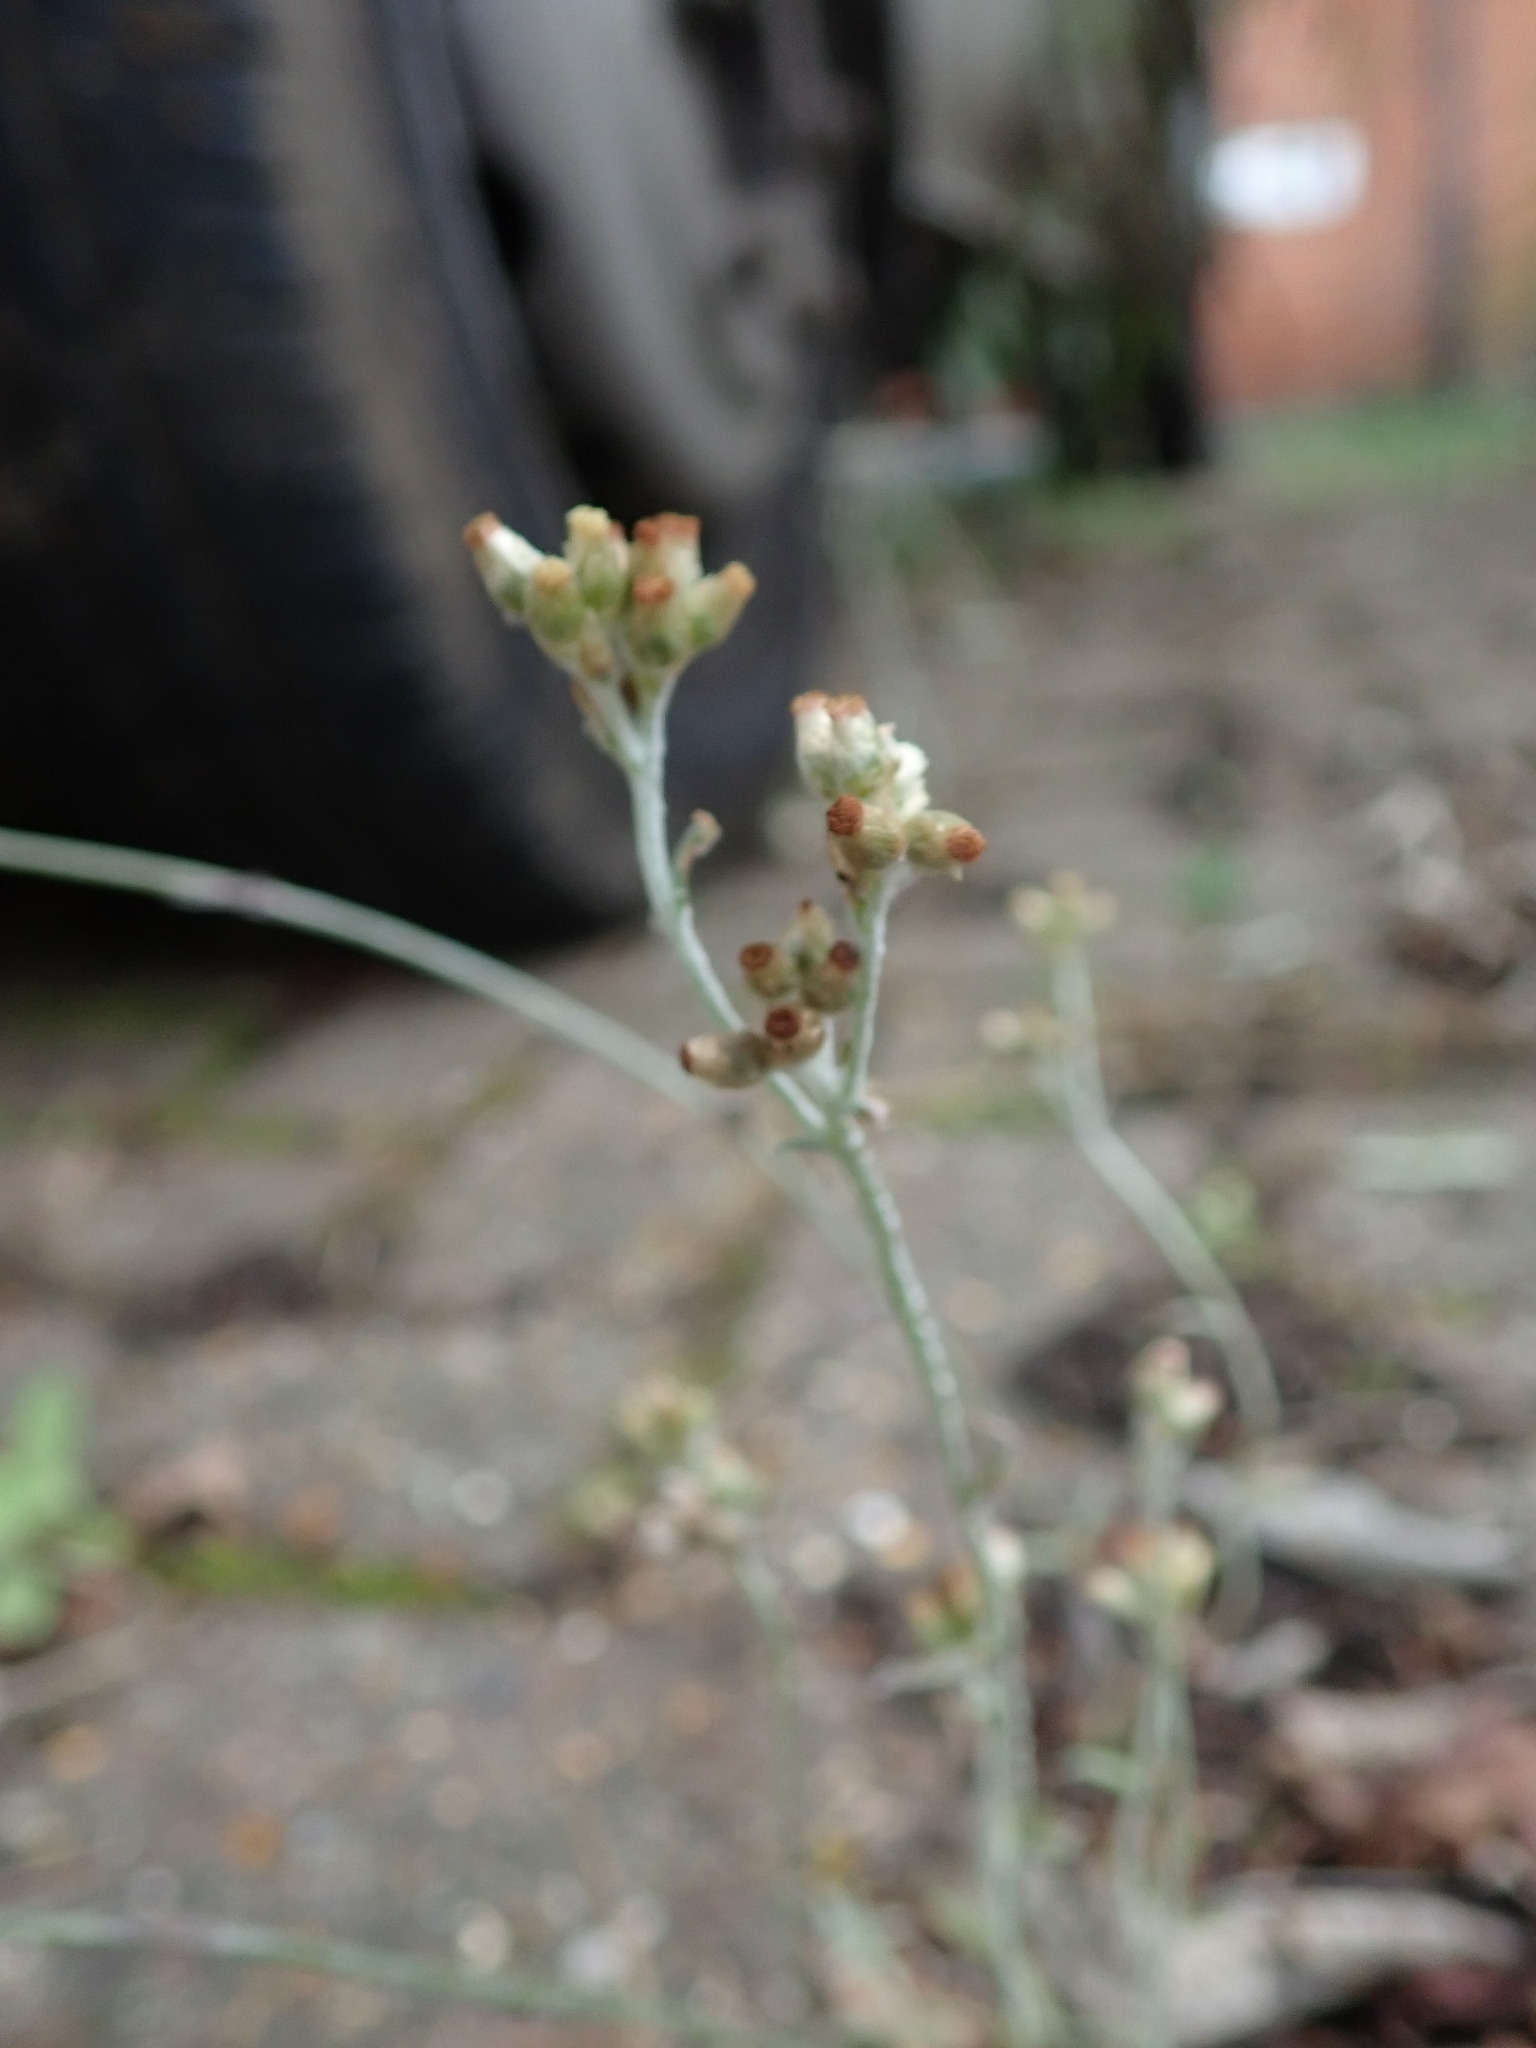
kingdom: Plantae
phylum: Tracheophyta
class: Magnoliopsida
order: Asterales
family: Asteraceae
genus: Helichrysum
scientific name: Helichrysum luteoalbum
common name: Daisy
